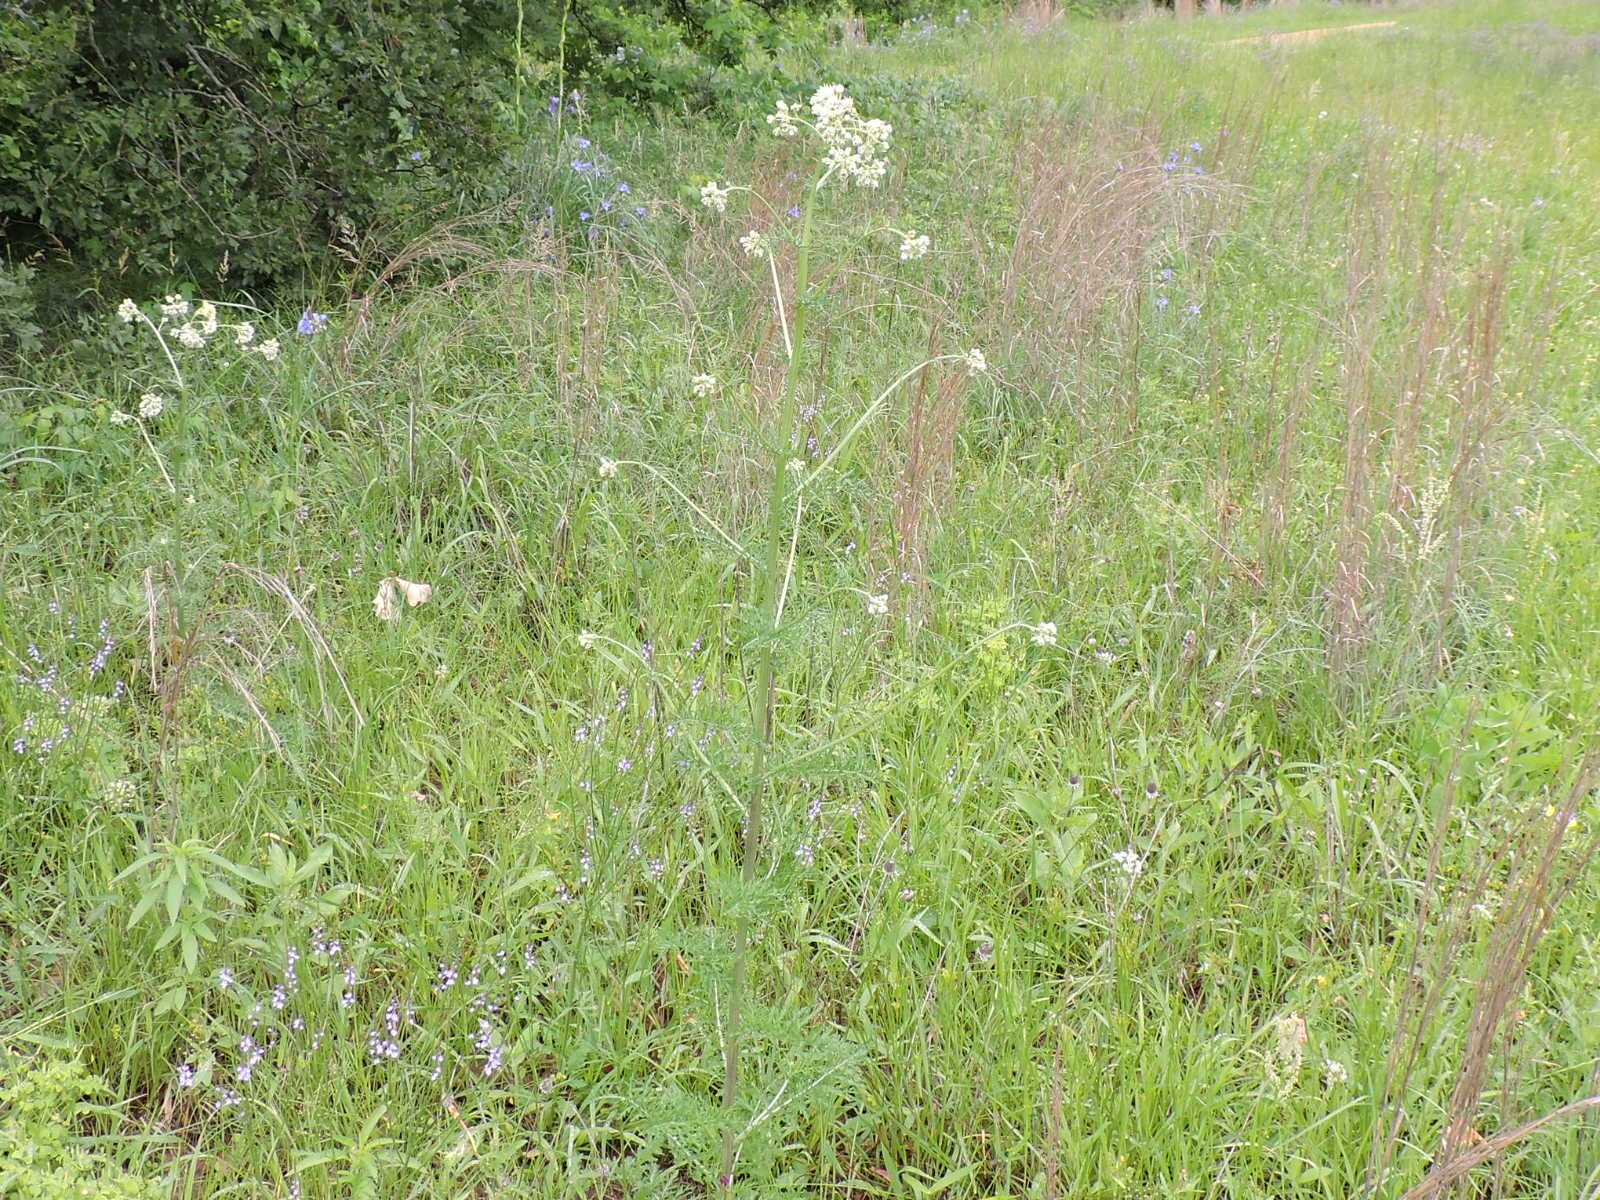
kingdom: Plantae
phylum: Tracheophyta
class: Magnoliopsida
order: Asterales
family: Asteraceae
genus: Hymenopappus
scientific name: Hymenopappus scabiosaeus
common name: Carolina woollywhite
